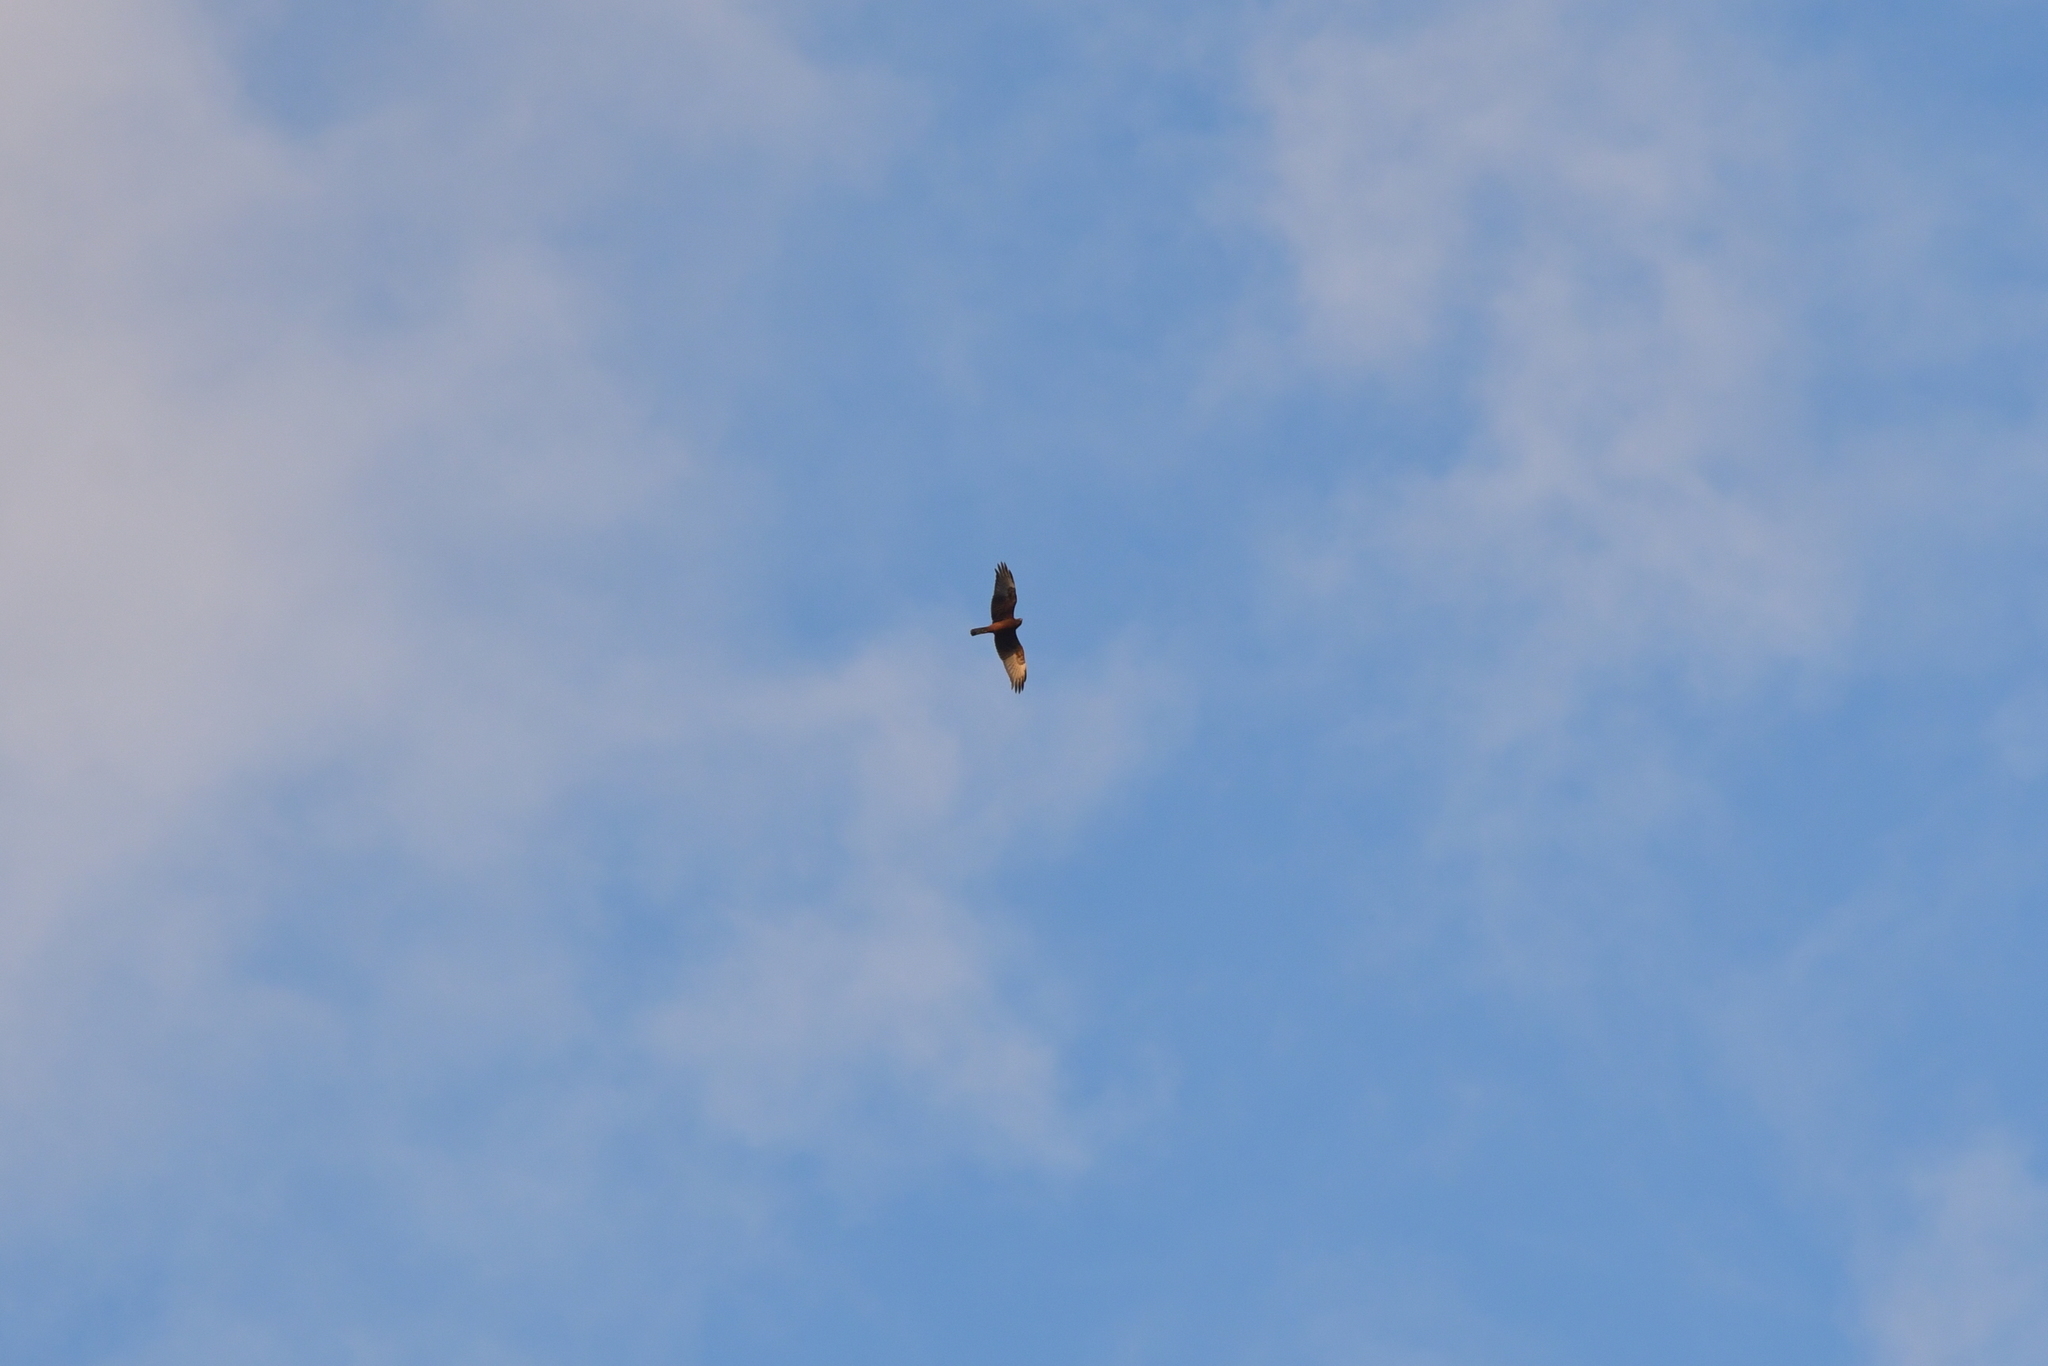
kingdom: Animalia
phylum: Chordata
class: Aves
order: Accipitriformes
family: Accipitridae
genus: Circus
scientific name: Circus approximans
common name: Swamp harrier
